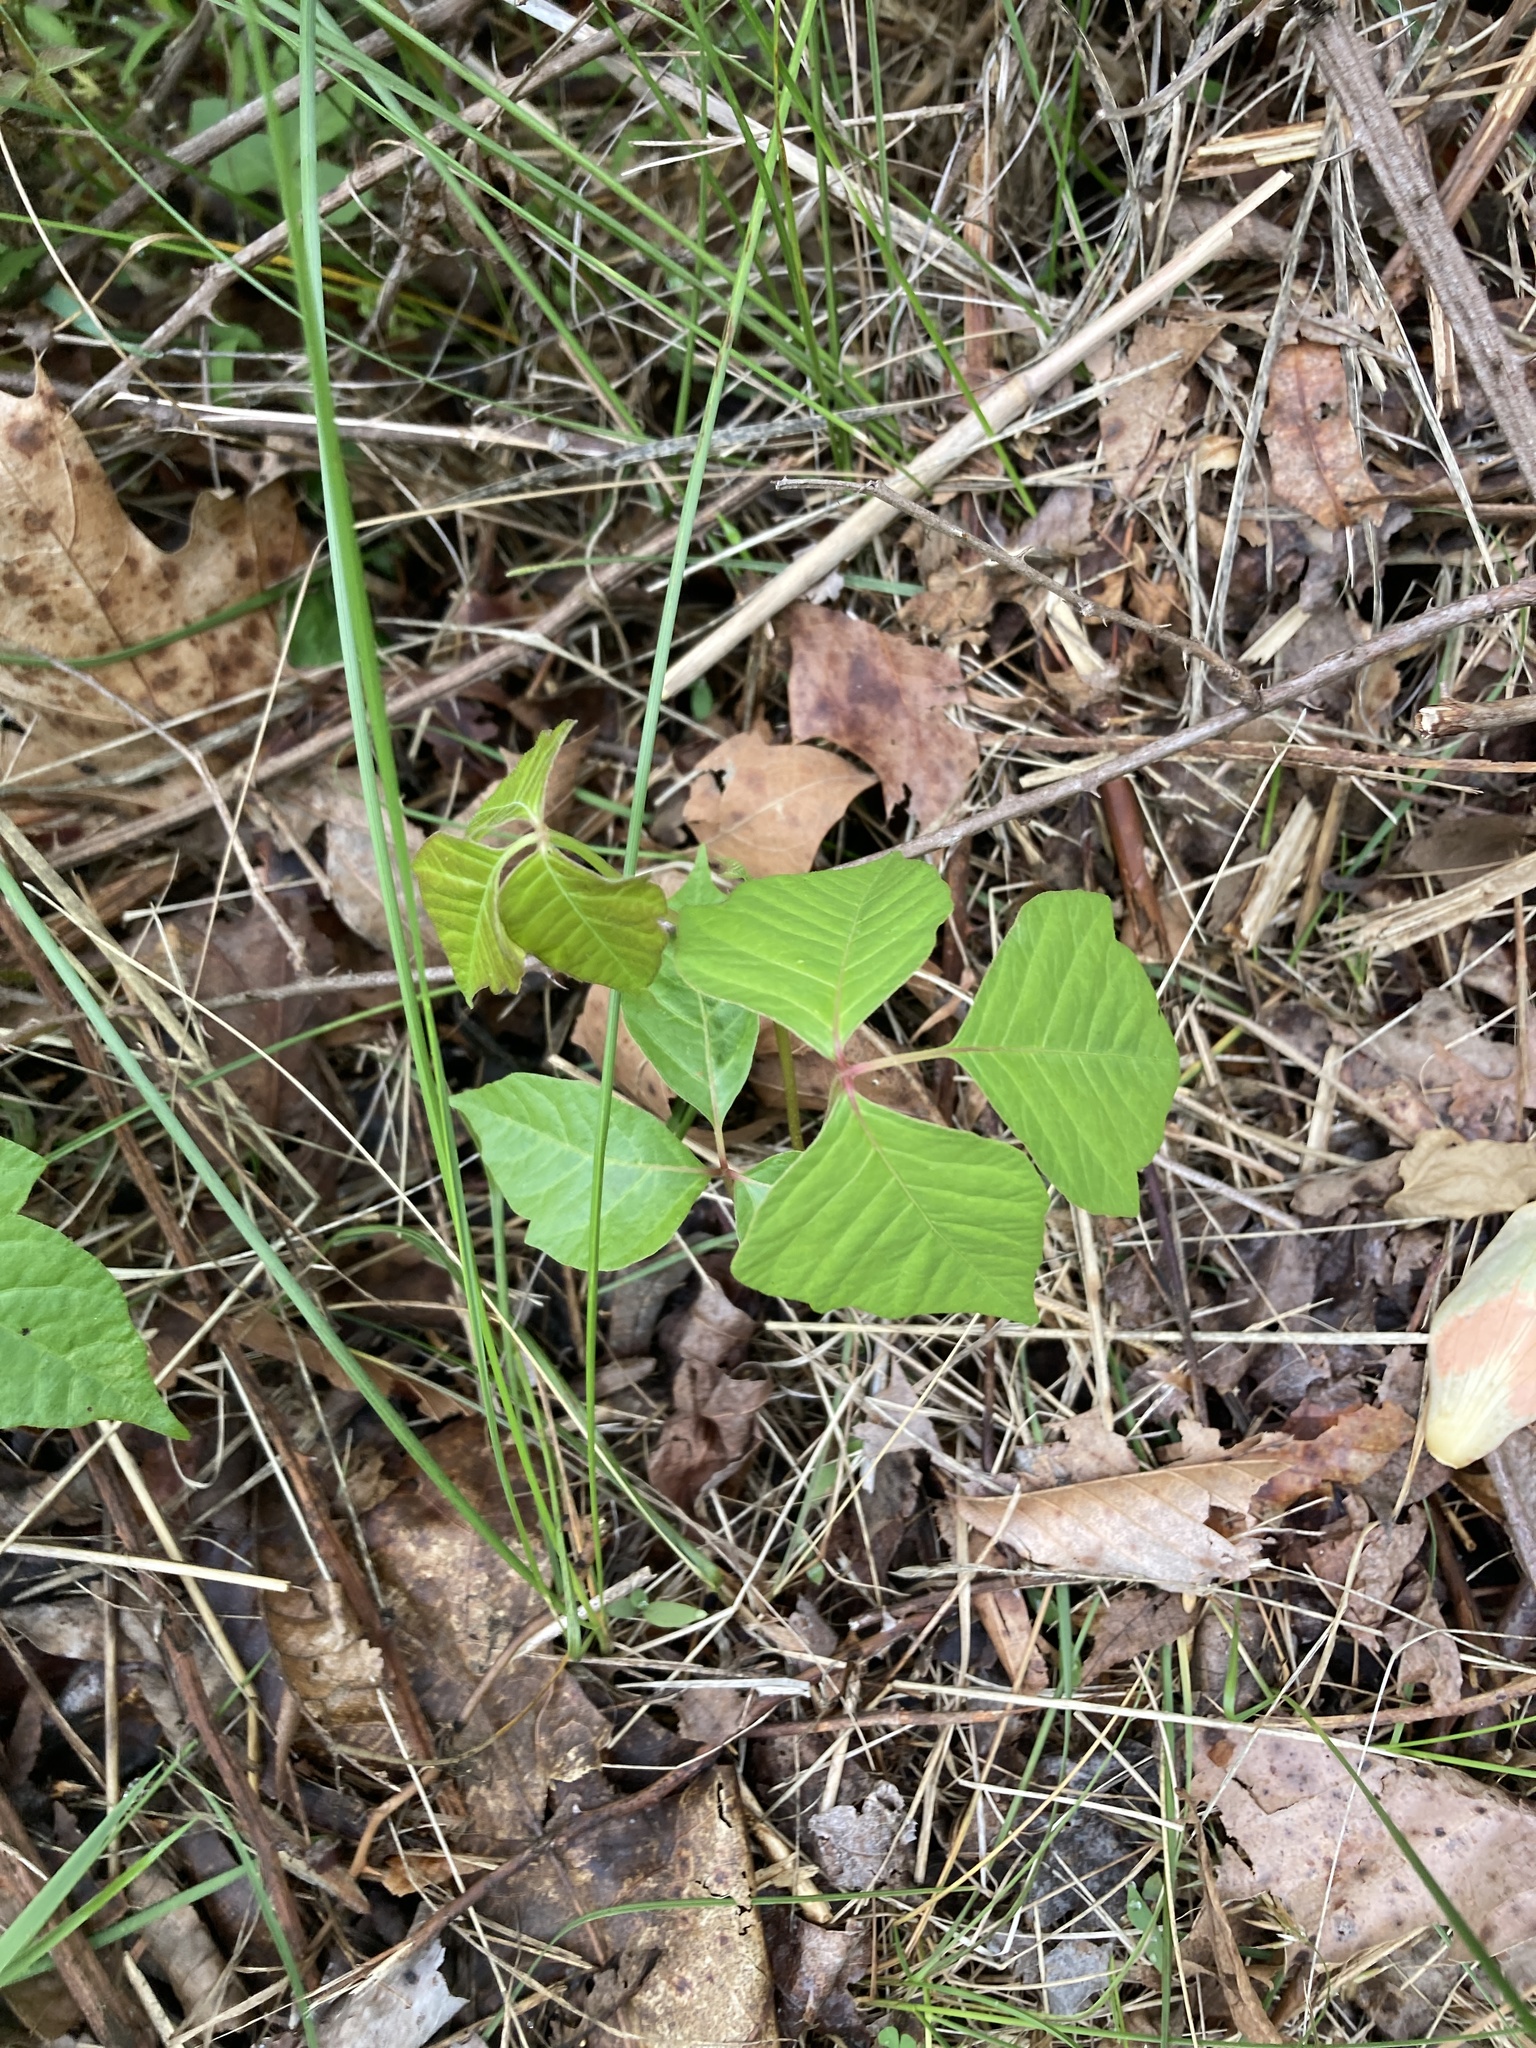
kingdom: Plantae
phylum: Tracheophyta
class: Magnoliopsida
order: Sapindales
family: Anacardiaceae
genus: Toxicodendron
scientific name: Toxicodendron radicans
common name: Poison ivy
